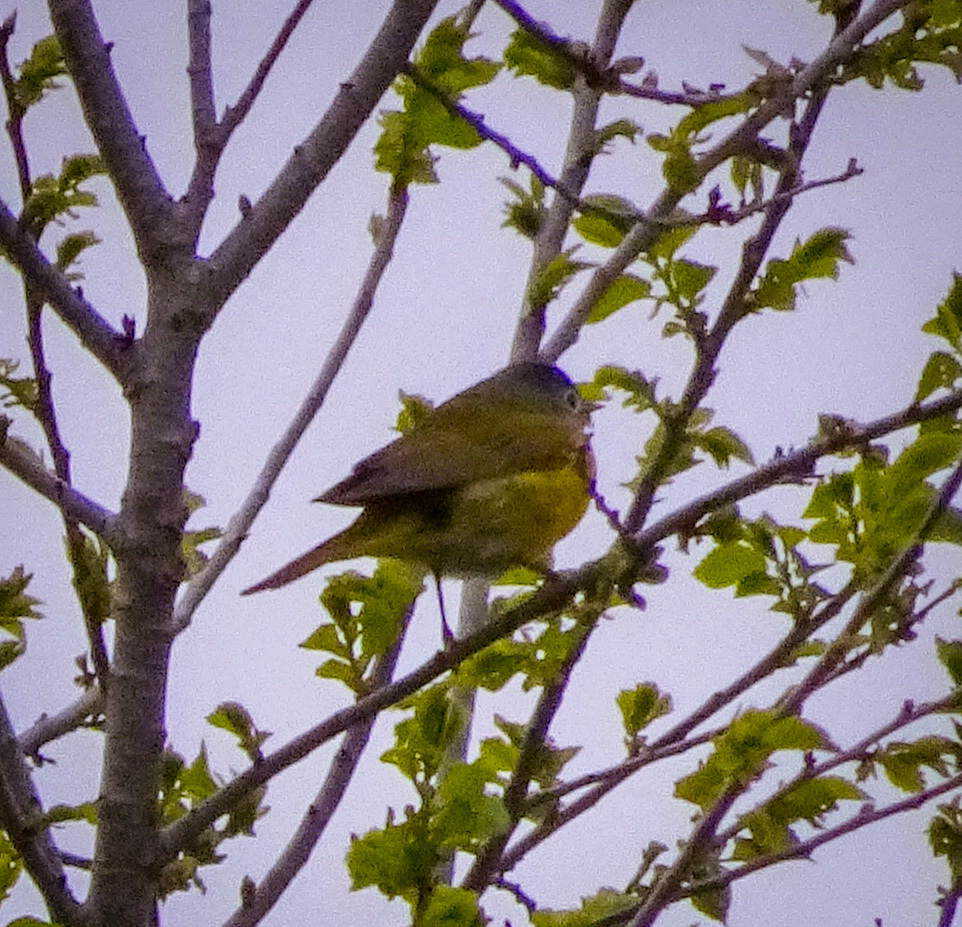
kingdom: Animalia
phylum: Chordata
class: Aves
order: Passeriformes
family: Parulidae
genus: Leiothlypis
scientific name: Leiothlypis ruficapilla
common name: Nashville warbler
